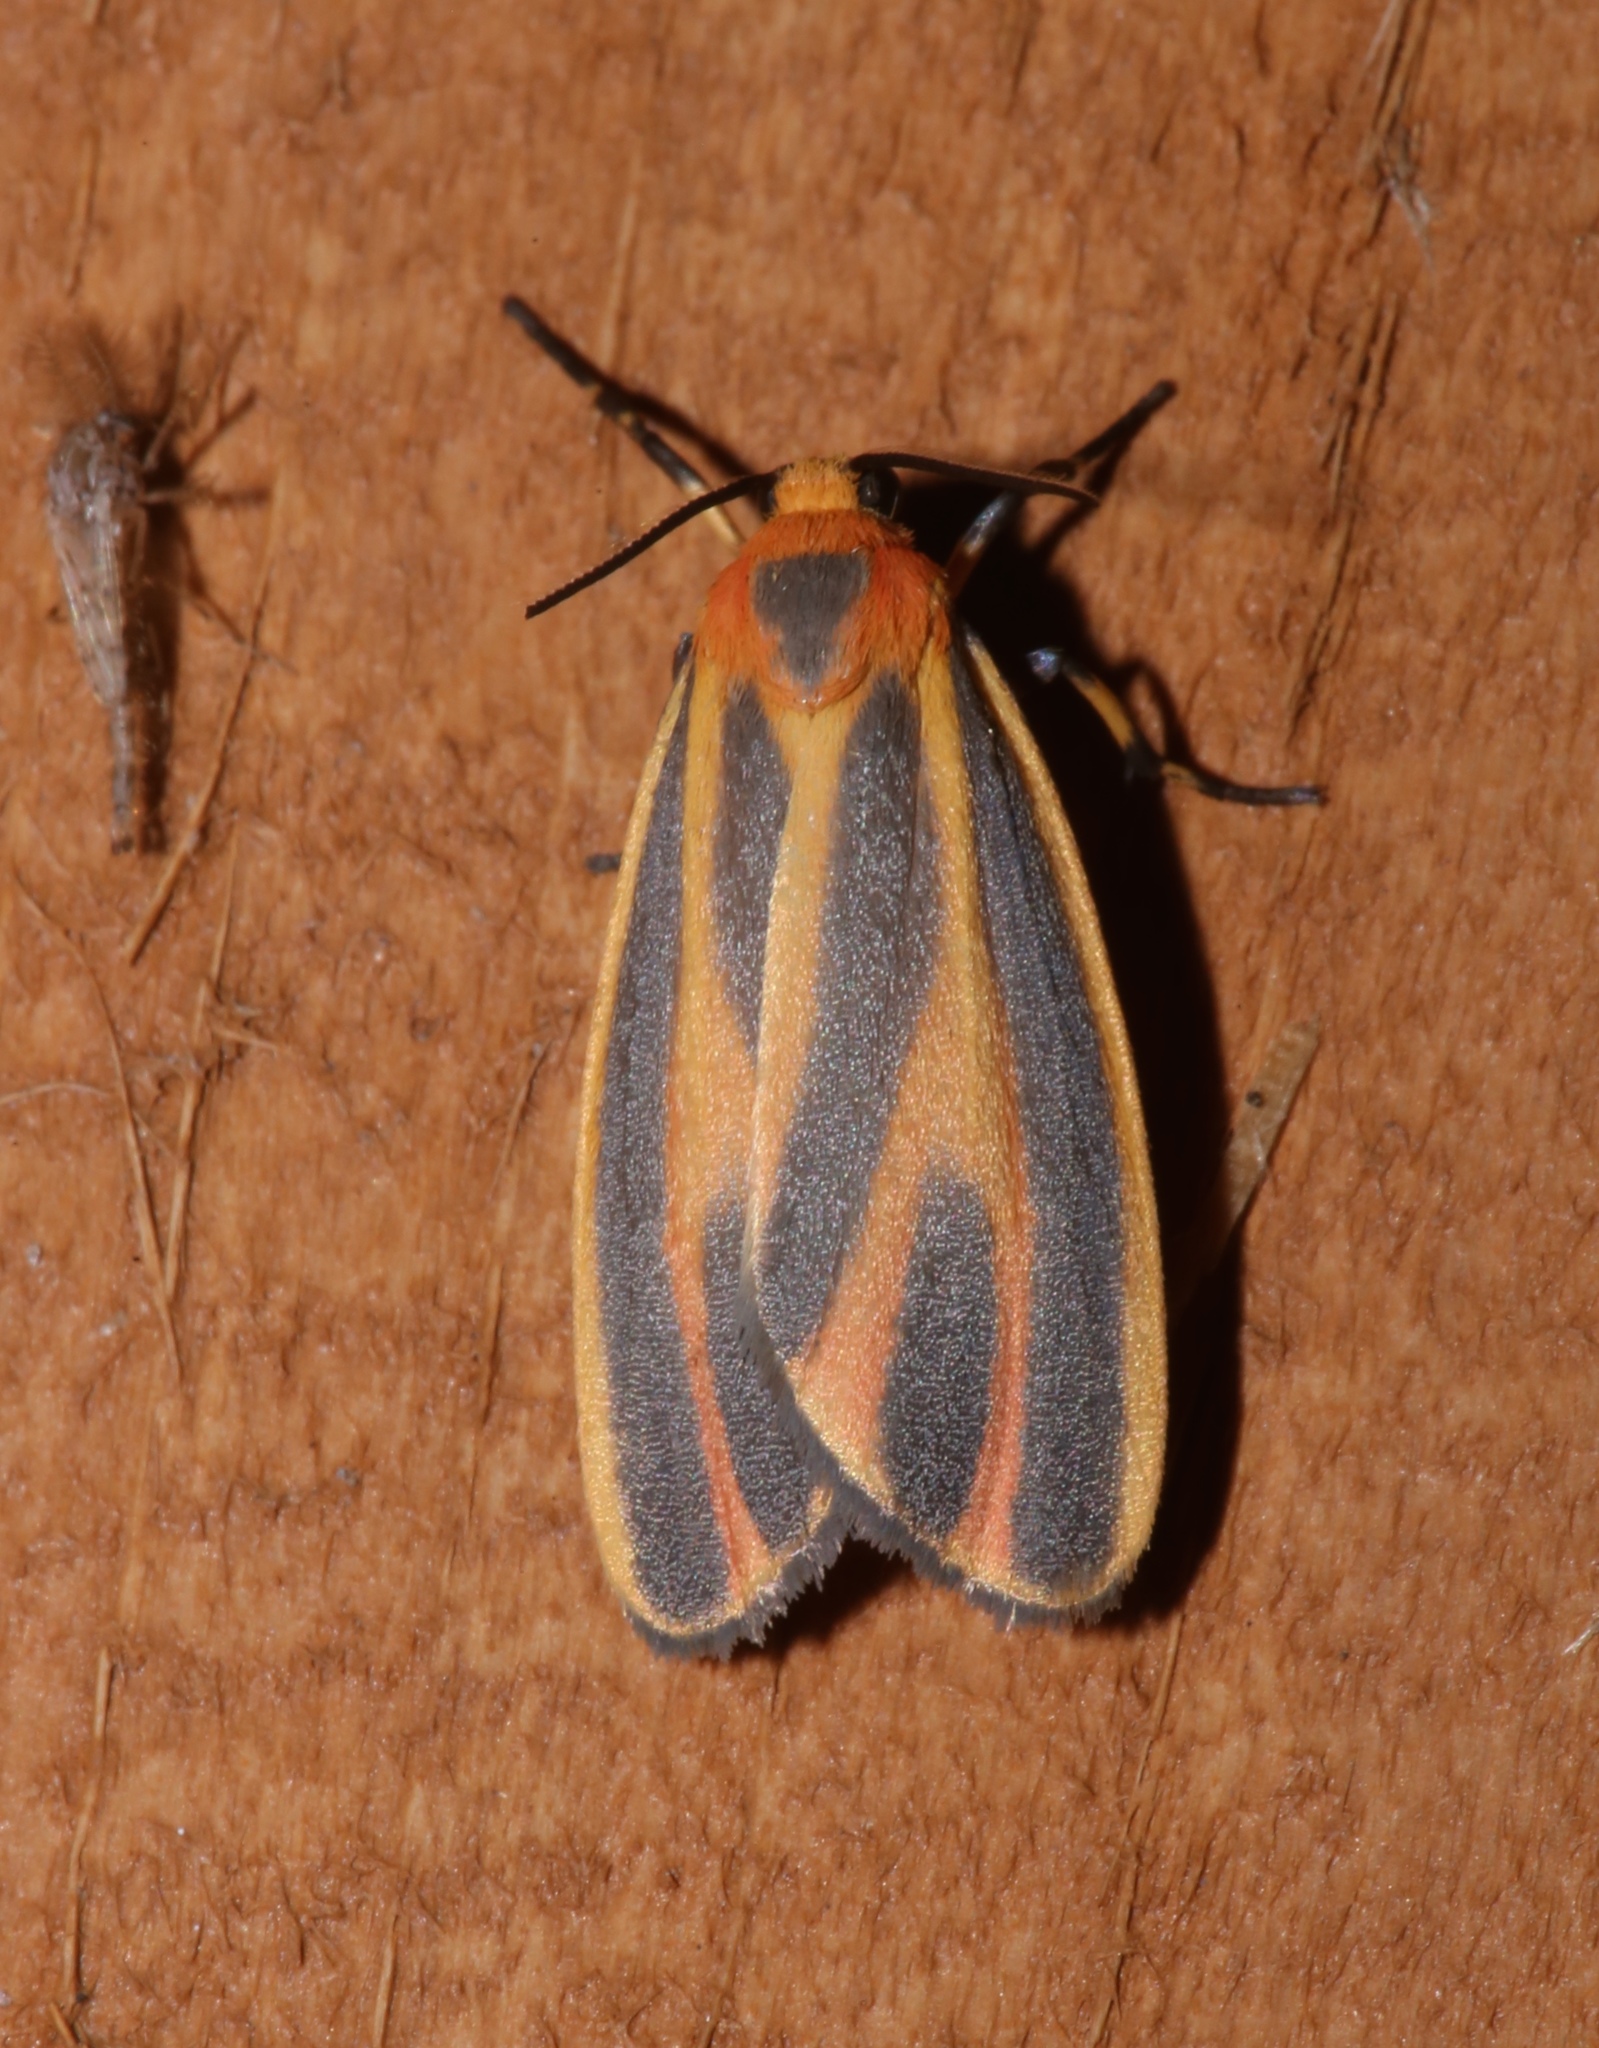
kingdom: Animalia
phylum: Arthropoda
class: Insecta
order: Lepidoptera
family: Erebidae
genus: Hypoprepia
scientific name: Hypoprepia fucosa
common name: Painted lichen moth
